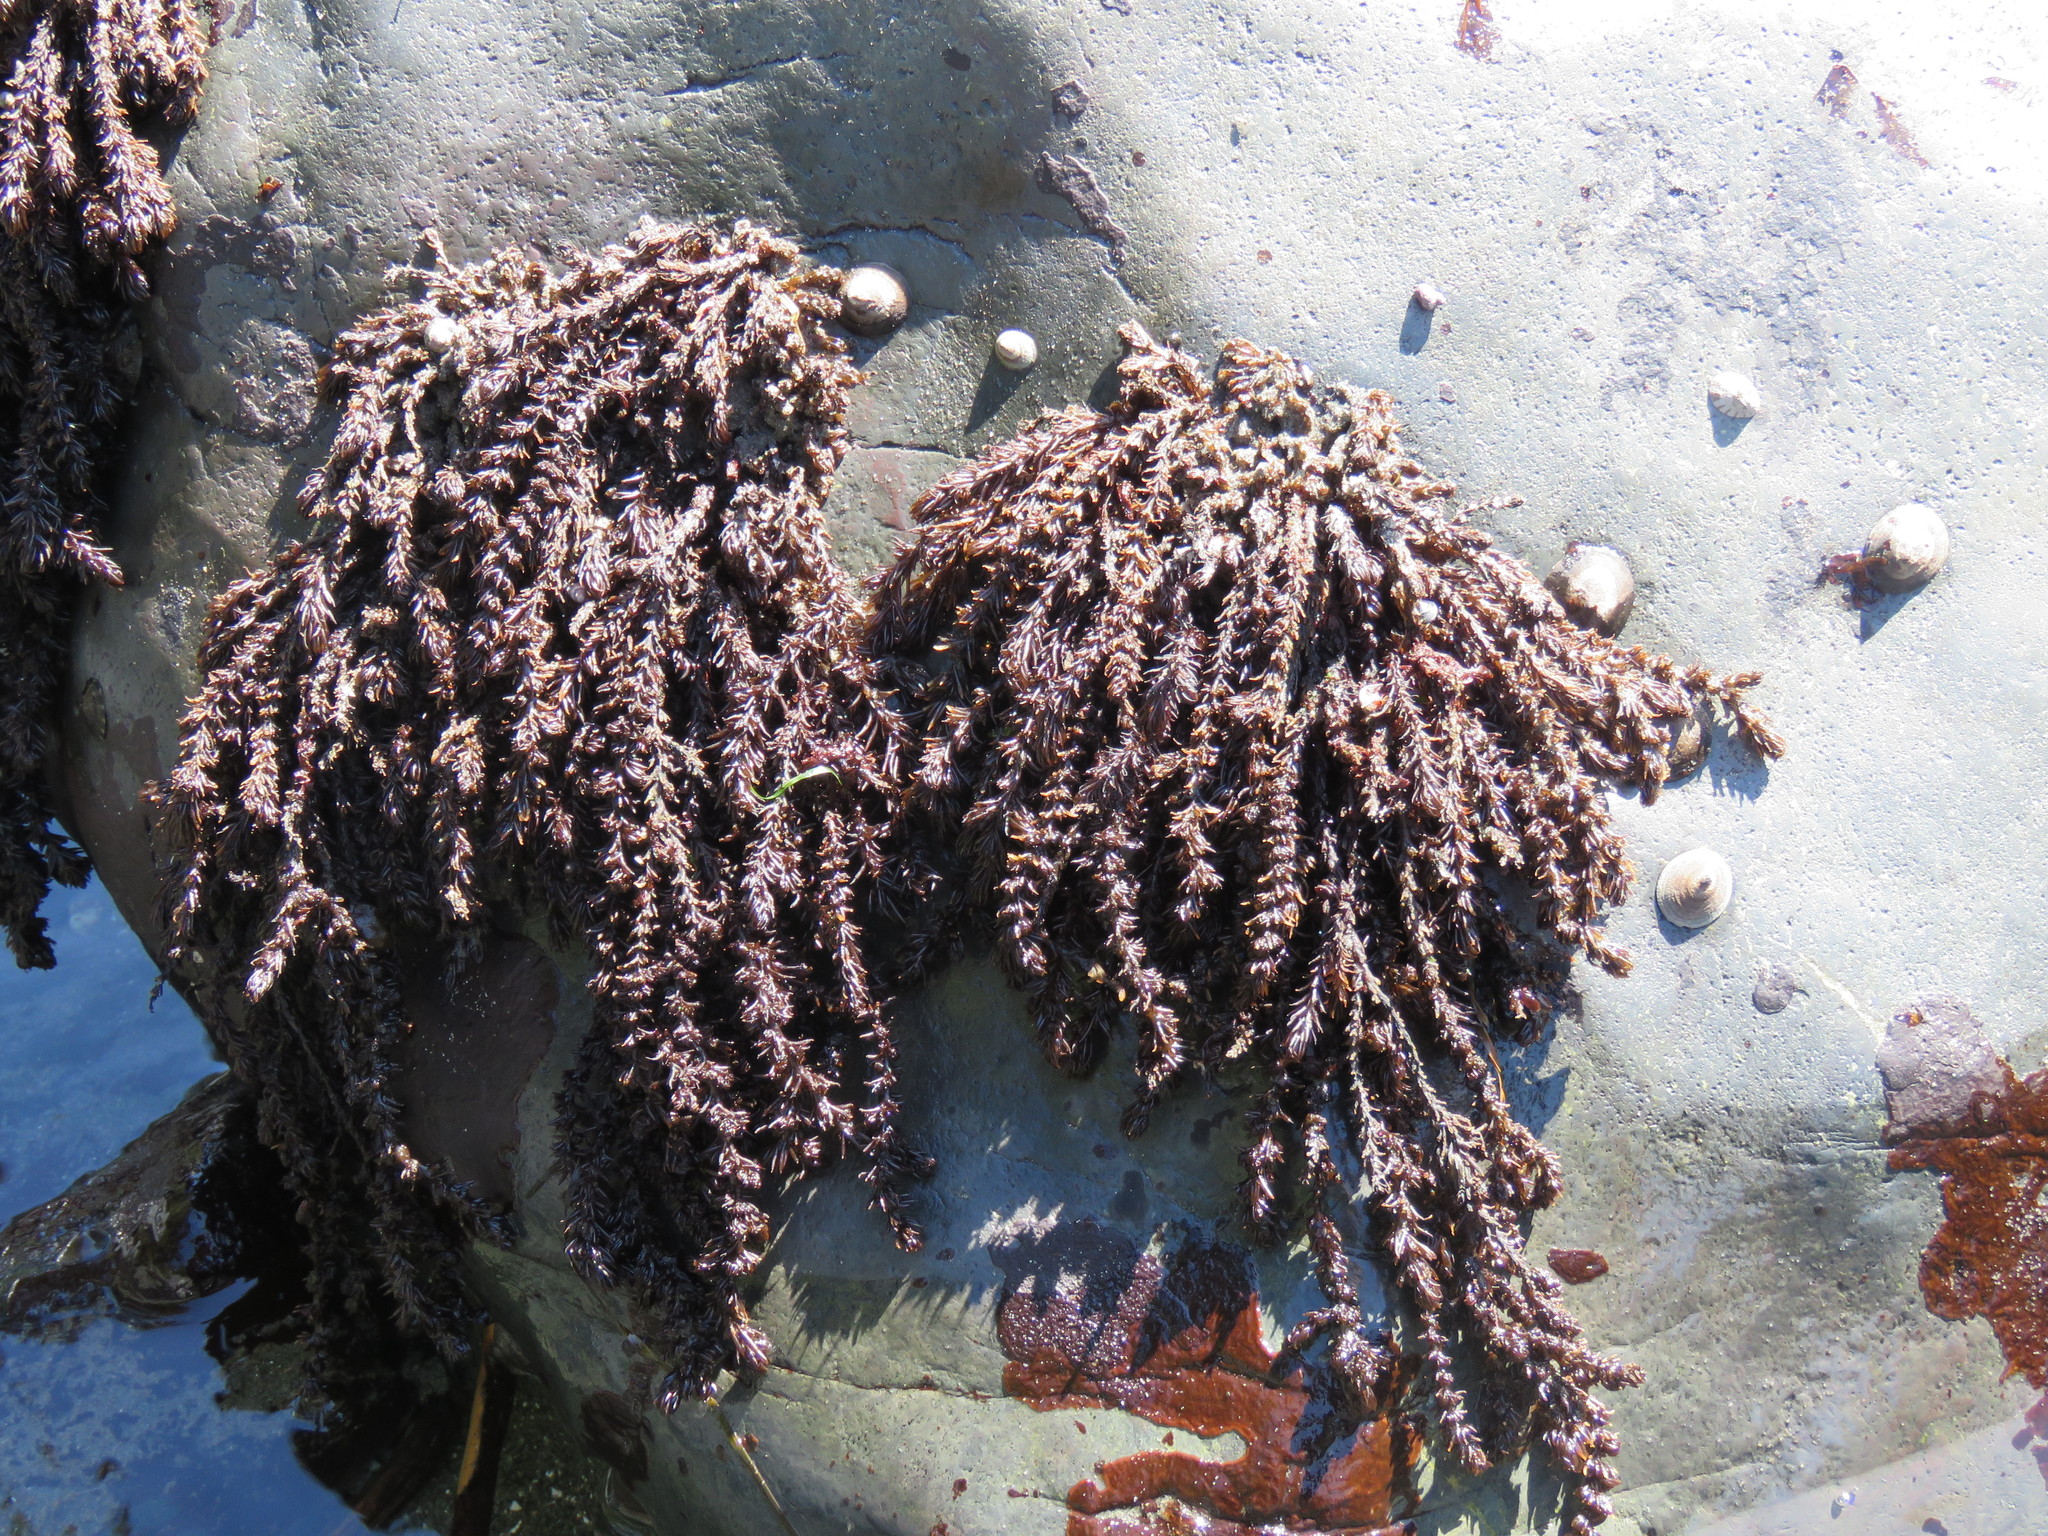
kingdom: Plantae
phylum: Rhodophyta
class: Florideophyceae
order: Ceramiales
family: Rhodomelaceae
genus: Neorhodomela
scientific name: Neorhodomela larix
